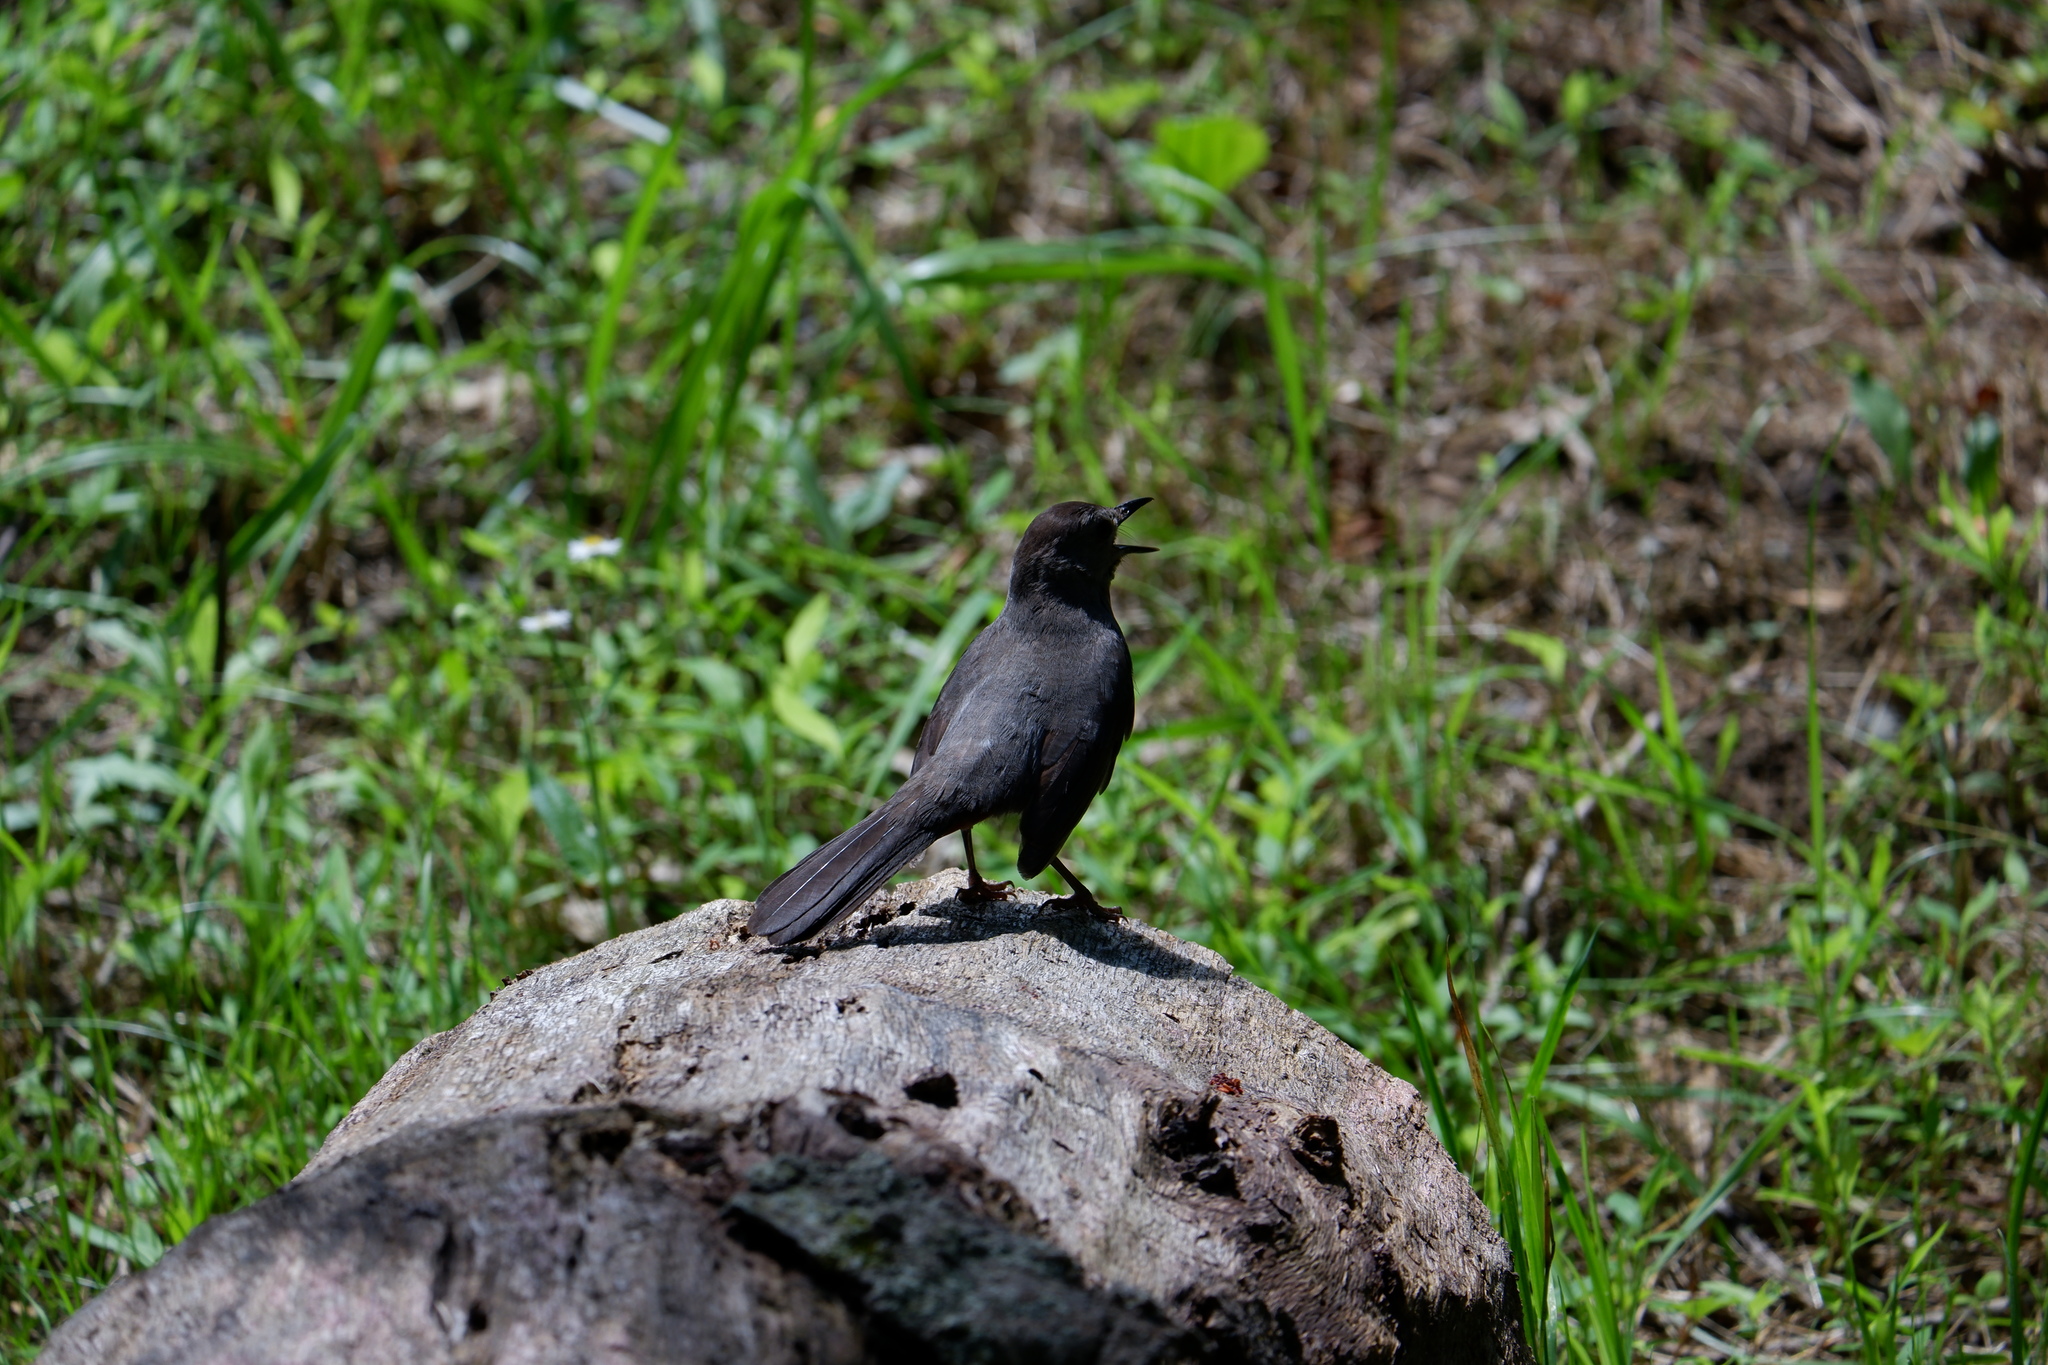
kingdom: Animalia
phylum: Chordata
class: Aves
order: Passeriformes
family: Mimidae
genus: Dumetella
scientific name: Dumetella carolinensis
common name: Gray catbird
